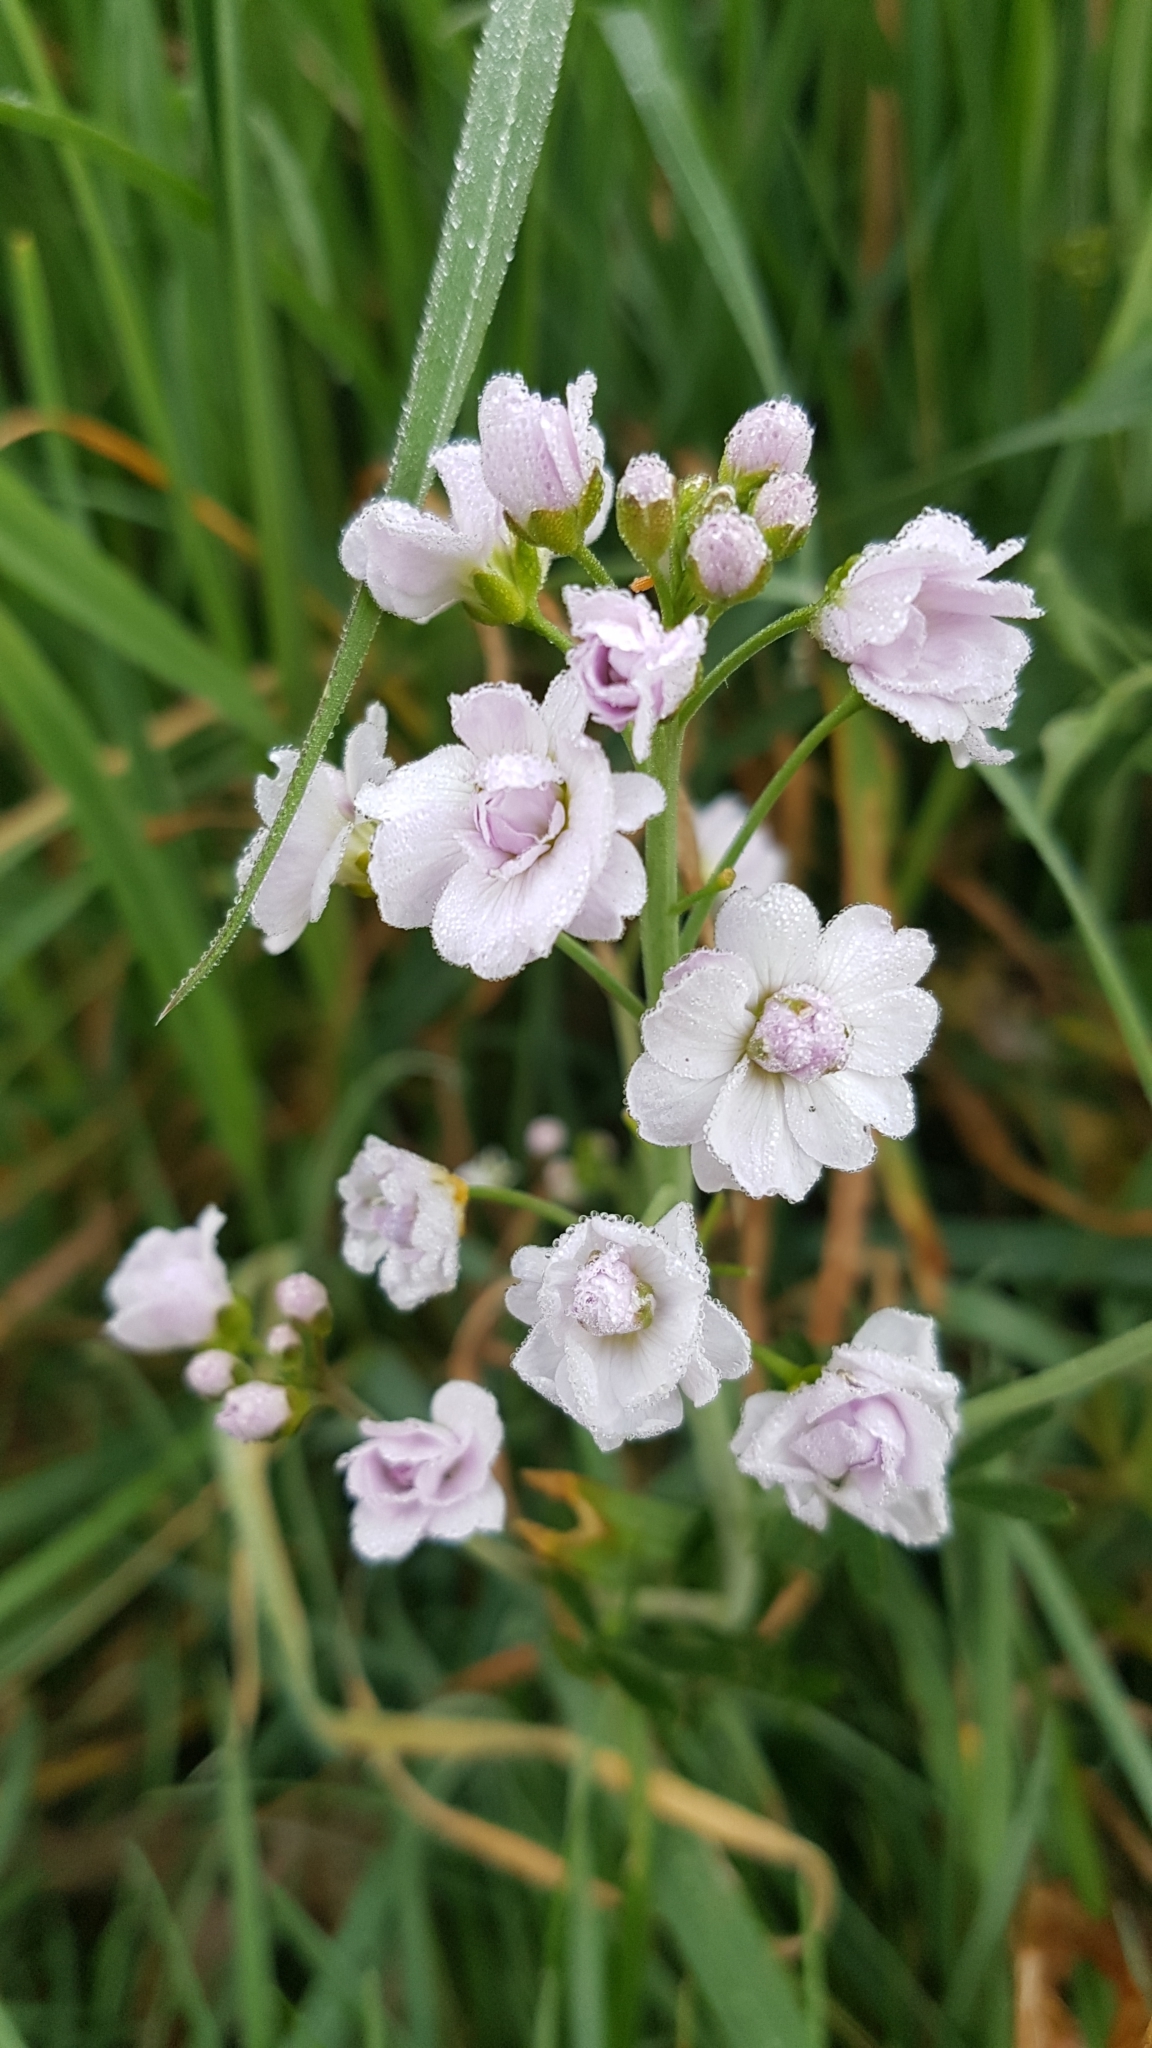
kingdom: Plantae
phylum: Tracheophyta
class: Magnoliopsida
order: Brassicales
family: Brassicaceae
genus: Cardamine
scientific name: Cardamine pratensis
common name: Cuckoo flower
